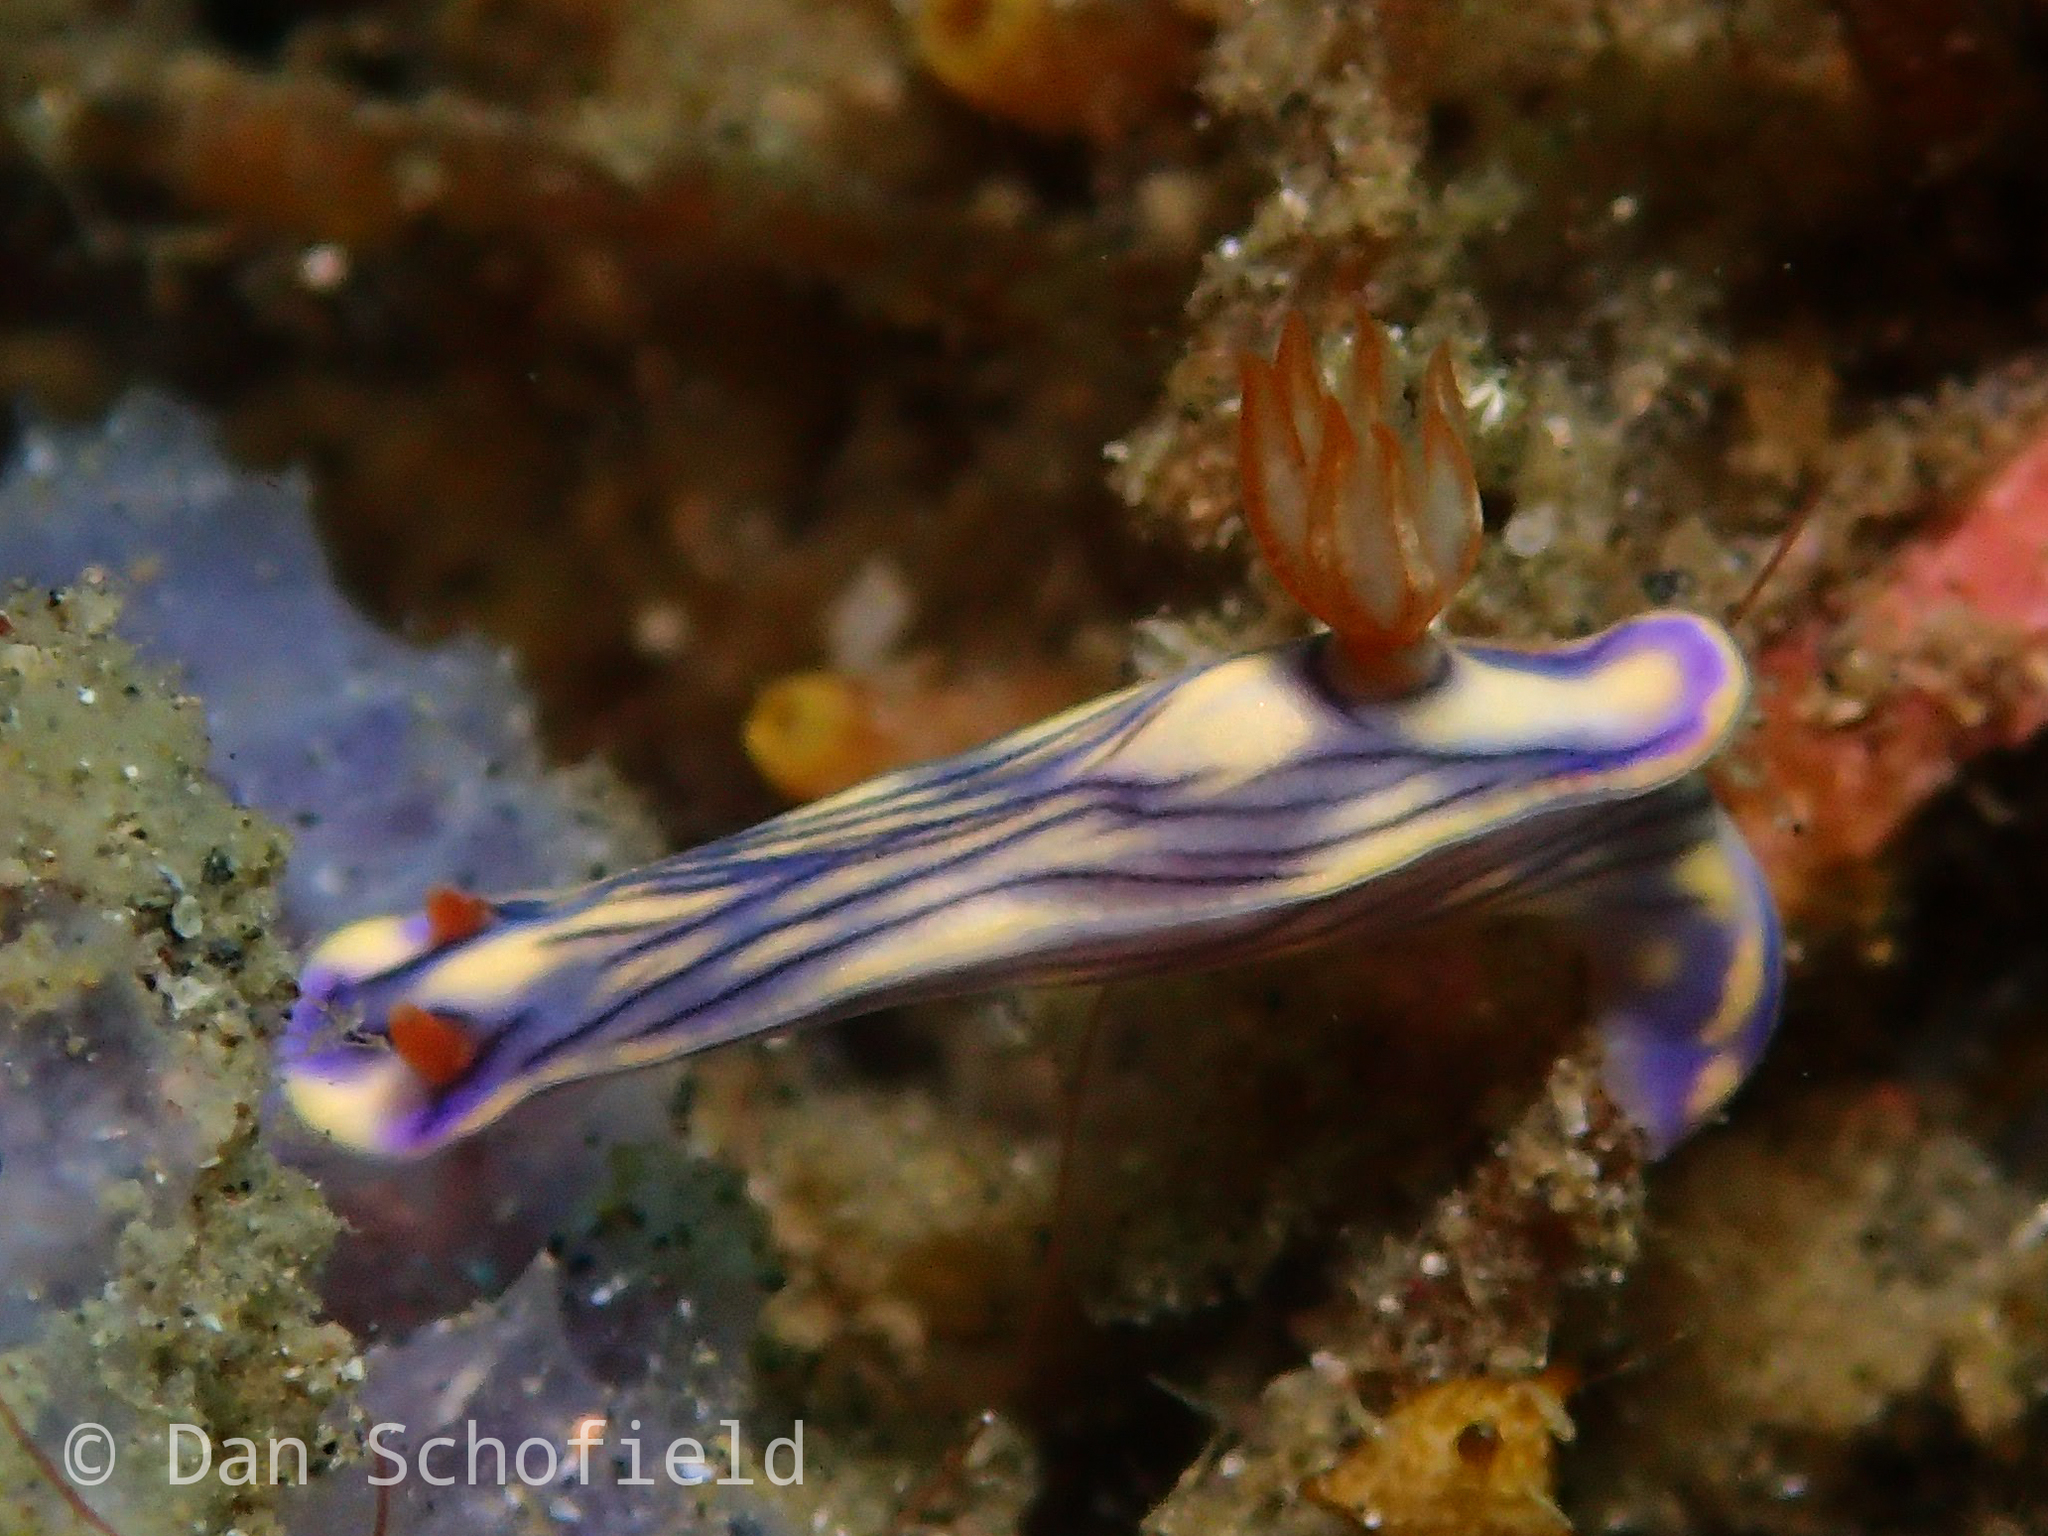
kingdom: Animalia
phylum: Mollusca
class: Gastropoda
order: Nudibranchia
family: Chromodorididae
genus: Hypselodoris
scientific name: Hypselodoris zephyra
